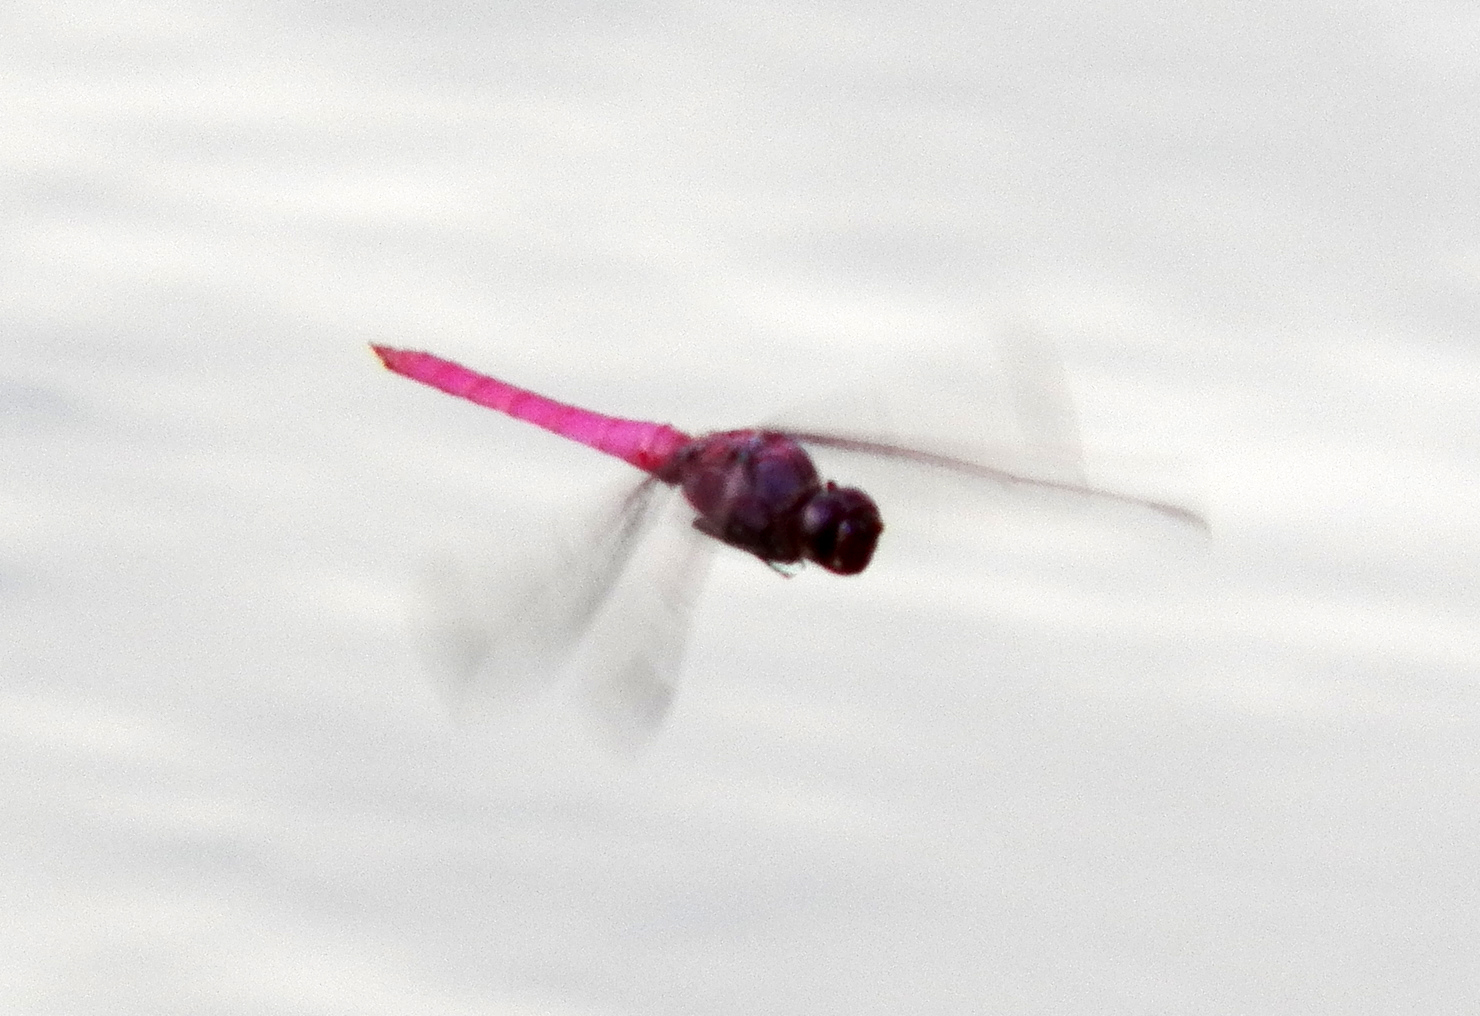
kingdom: Animalia
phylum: Arthropoda
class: Insecta
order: Odonata
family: Libellulidae
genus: Orthemis
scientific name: Orthemis ferruginea
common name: Roseate skimmer
